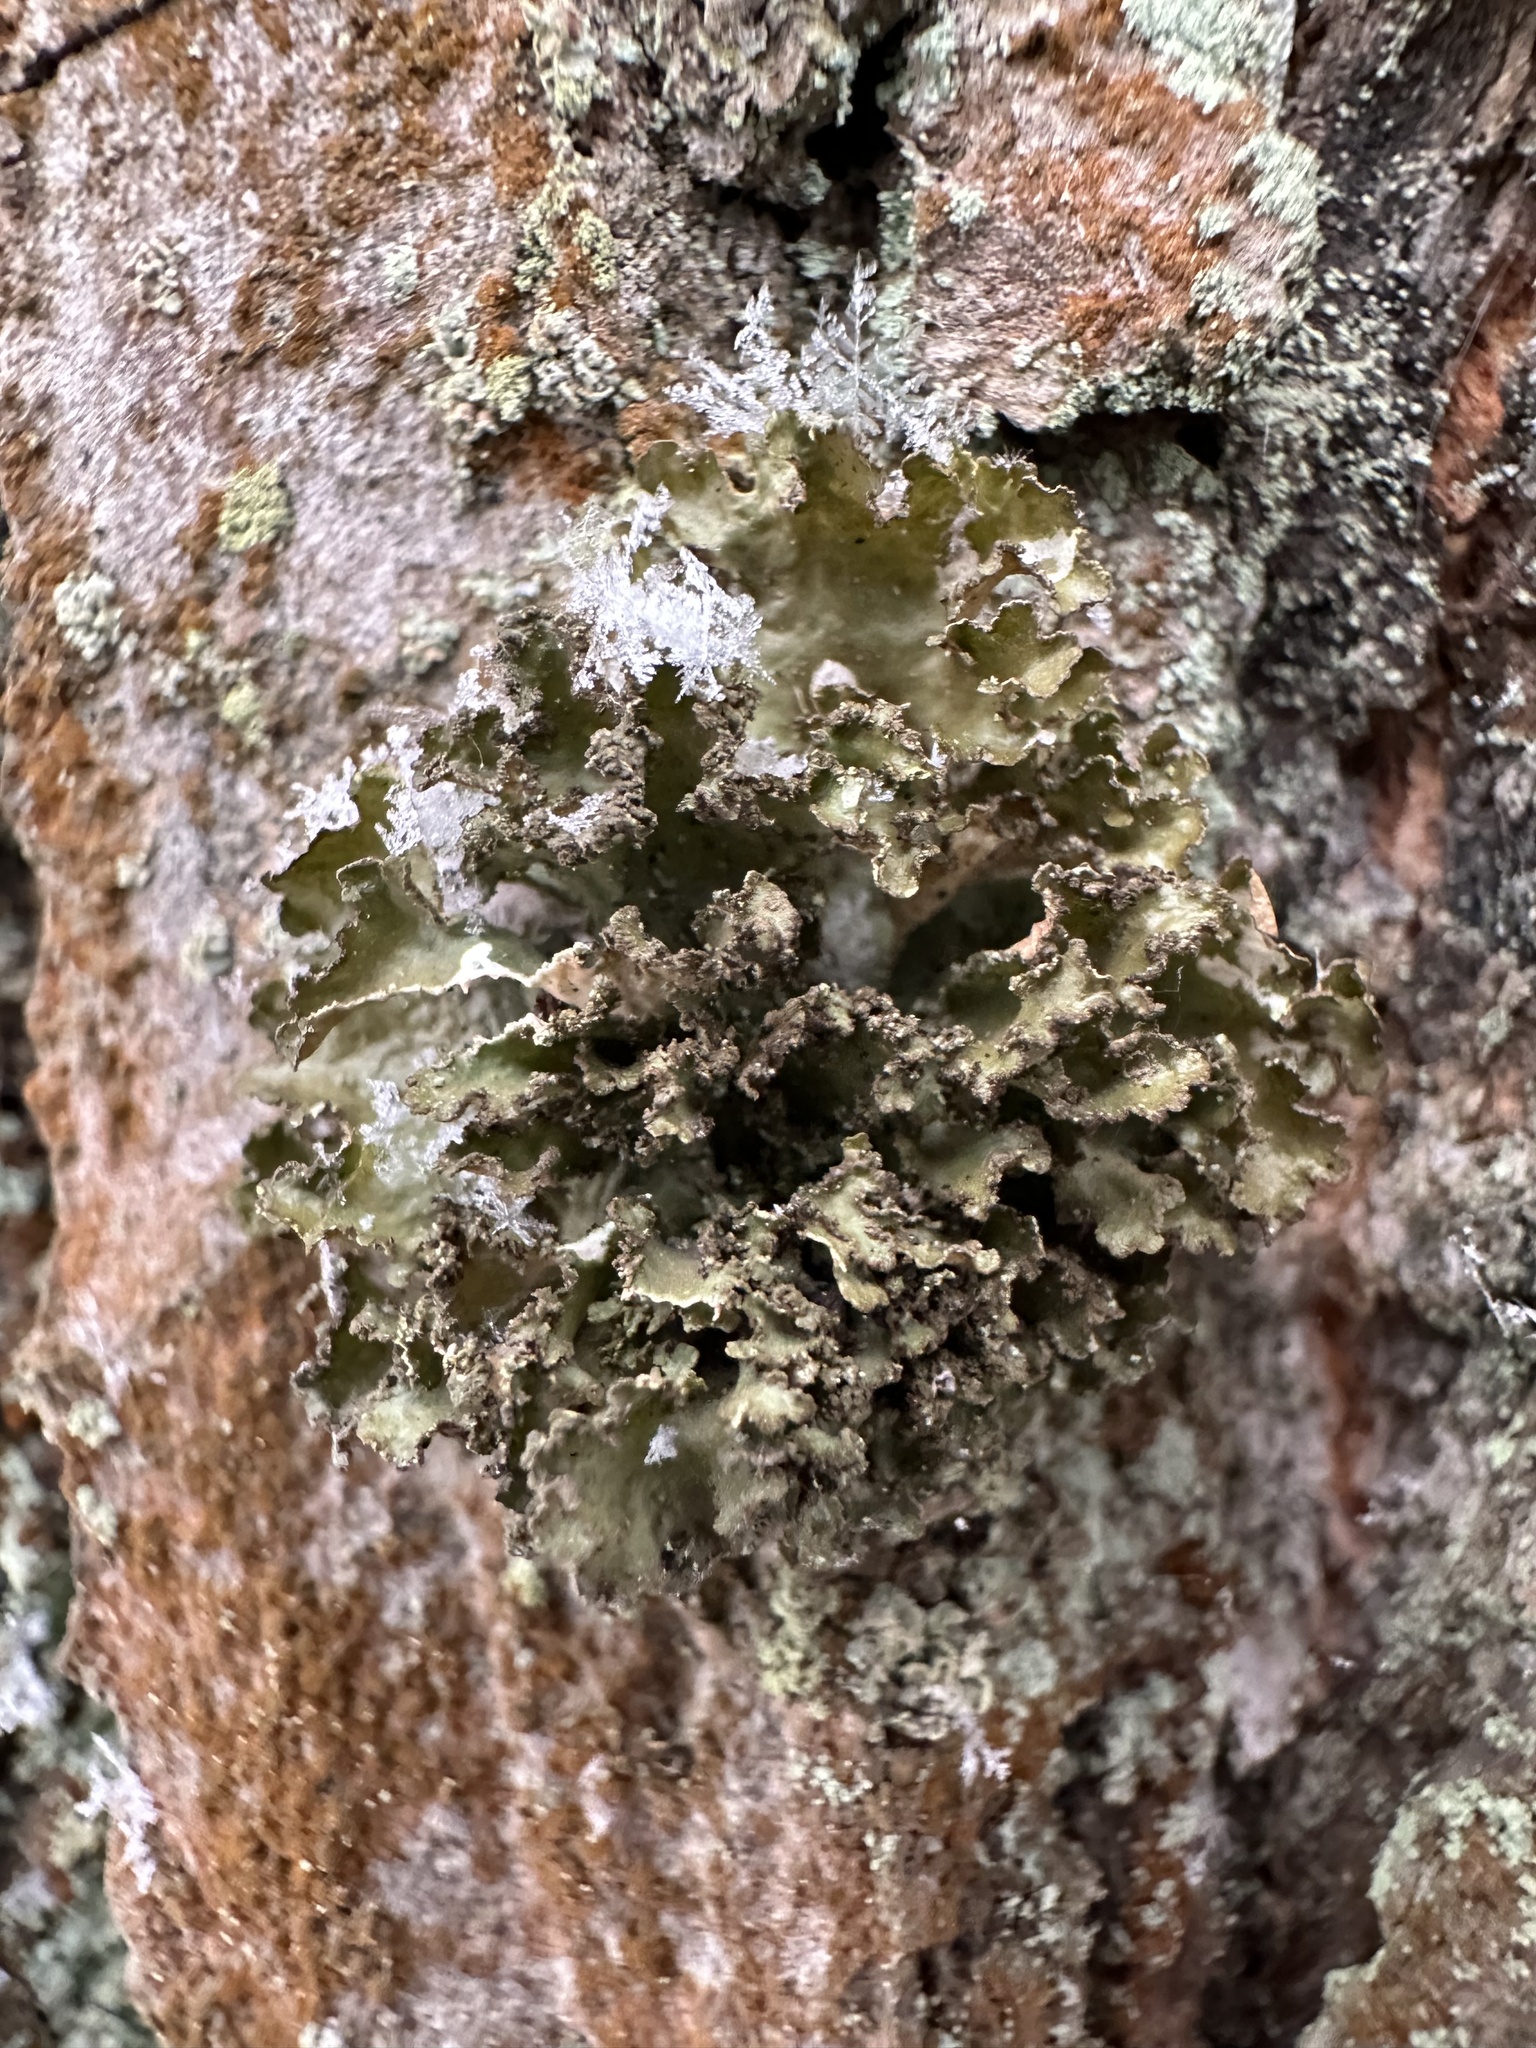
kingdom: Fungi
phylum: Ascomycota
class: Lecanoromycetes
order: Lecanorales
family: Parmeliaceae
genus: Nephromopsis
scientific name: Nephromopsis chlorophylla
